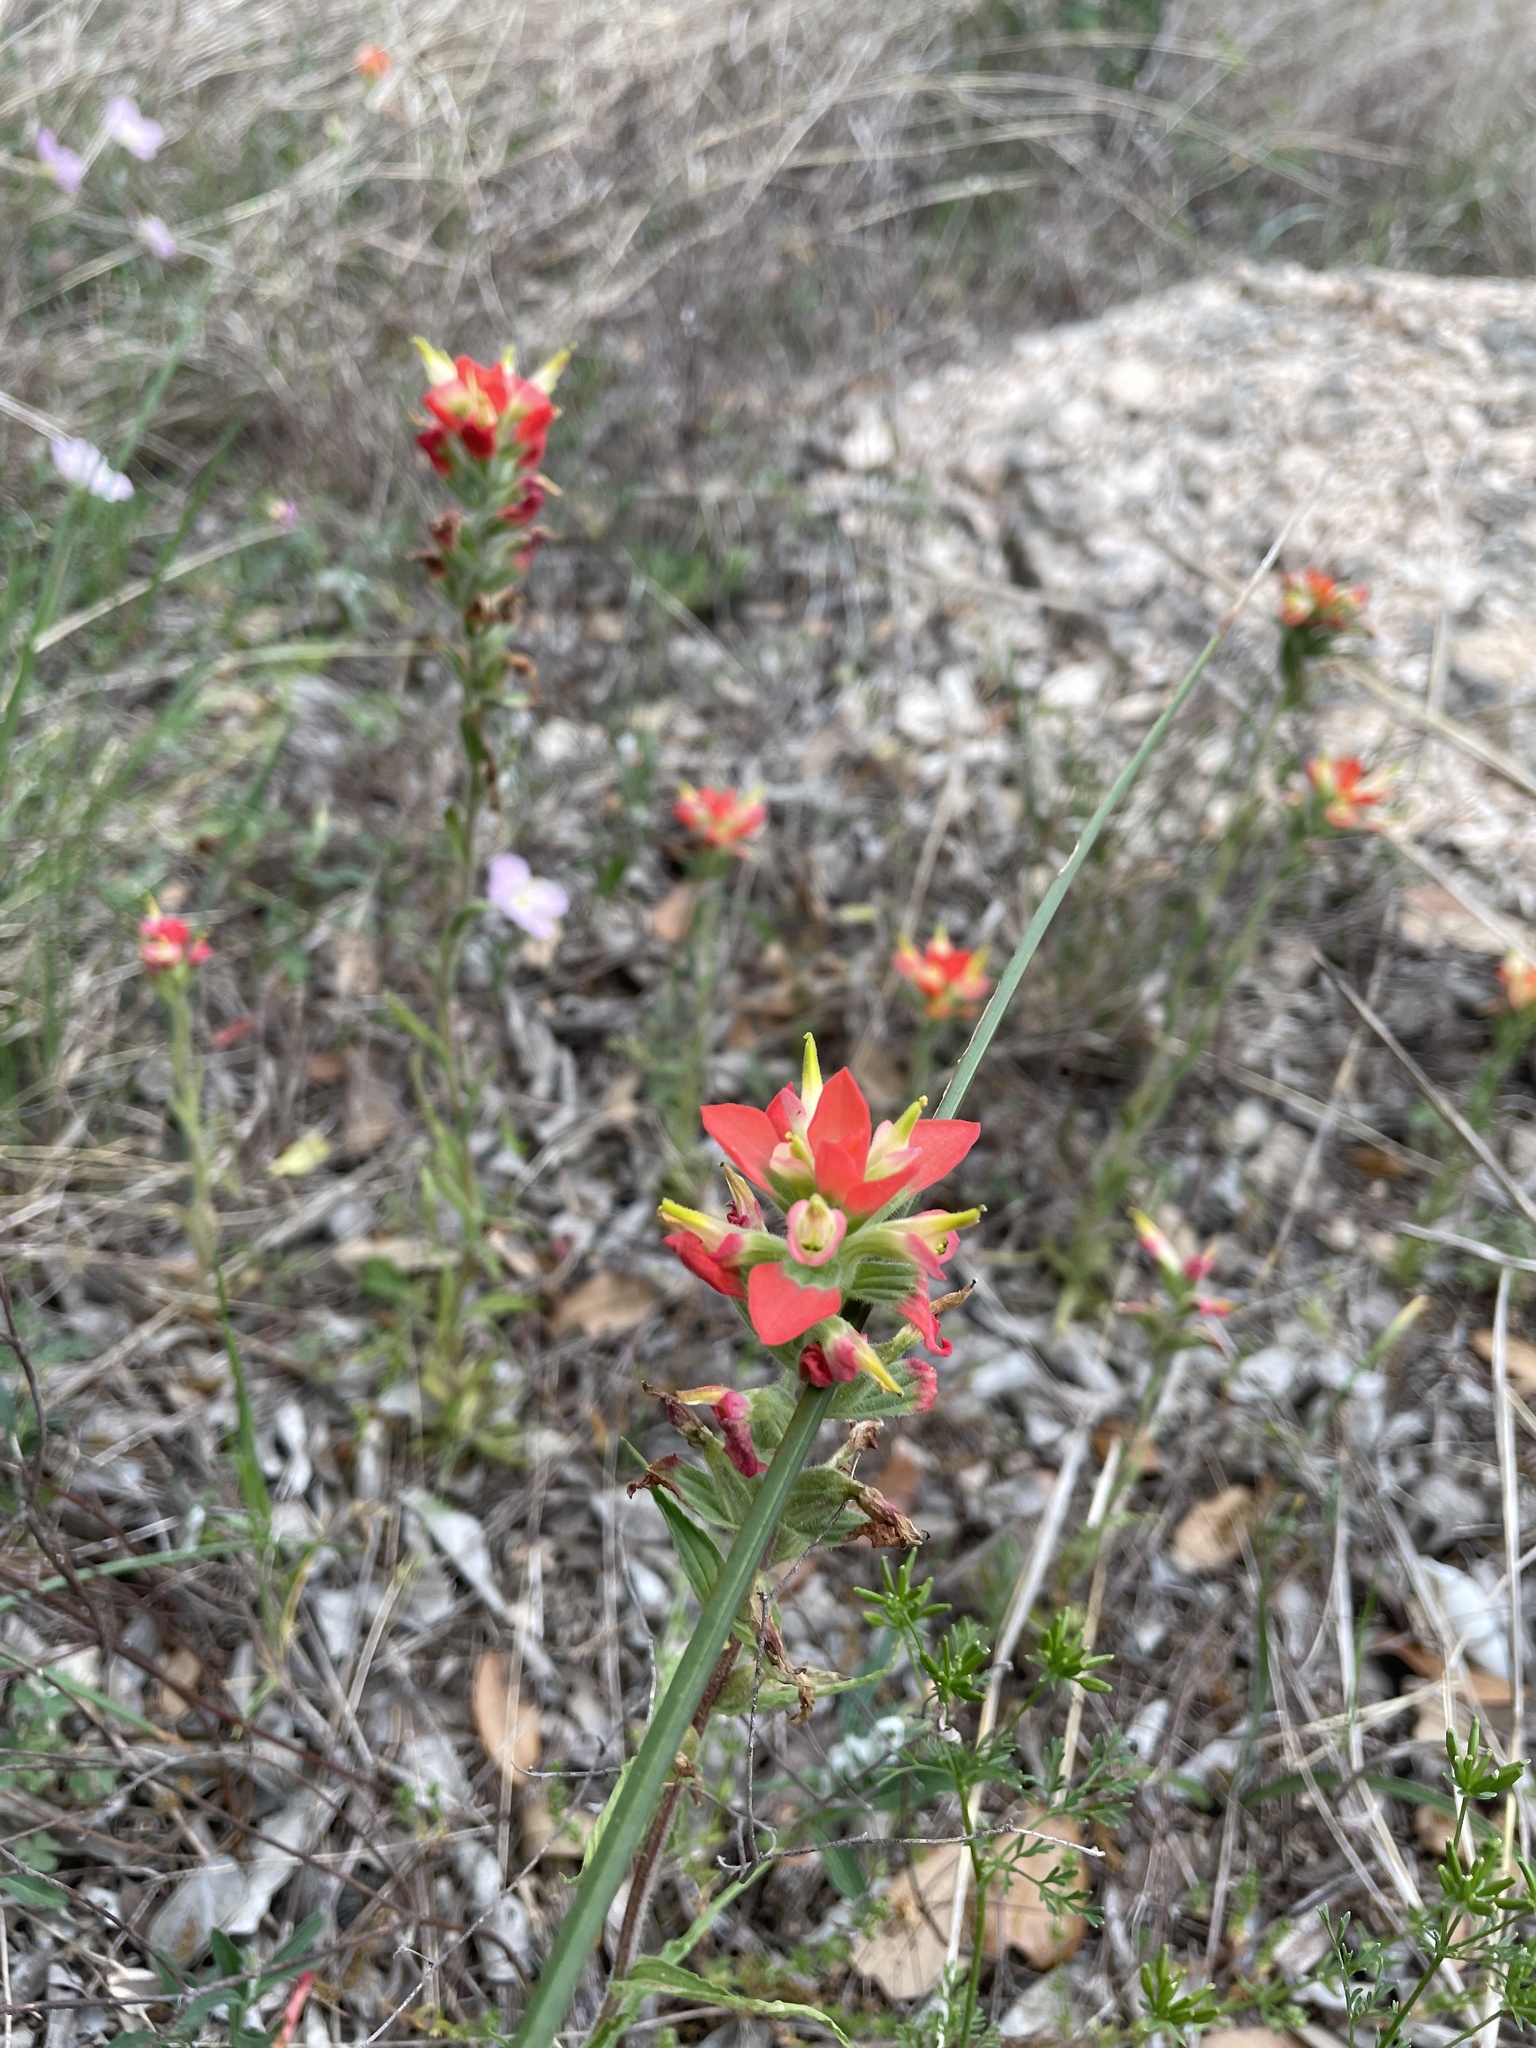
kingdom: Plantae
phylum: Tracheophyta
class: Magnoliopsida
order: Lamiales
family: Orobanchaceae
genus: Castilleja
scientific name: Castilleja indivisa
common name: Texas paintbrush
